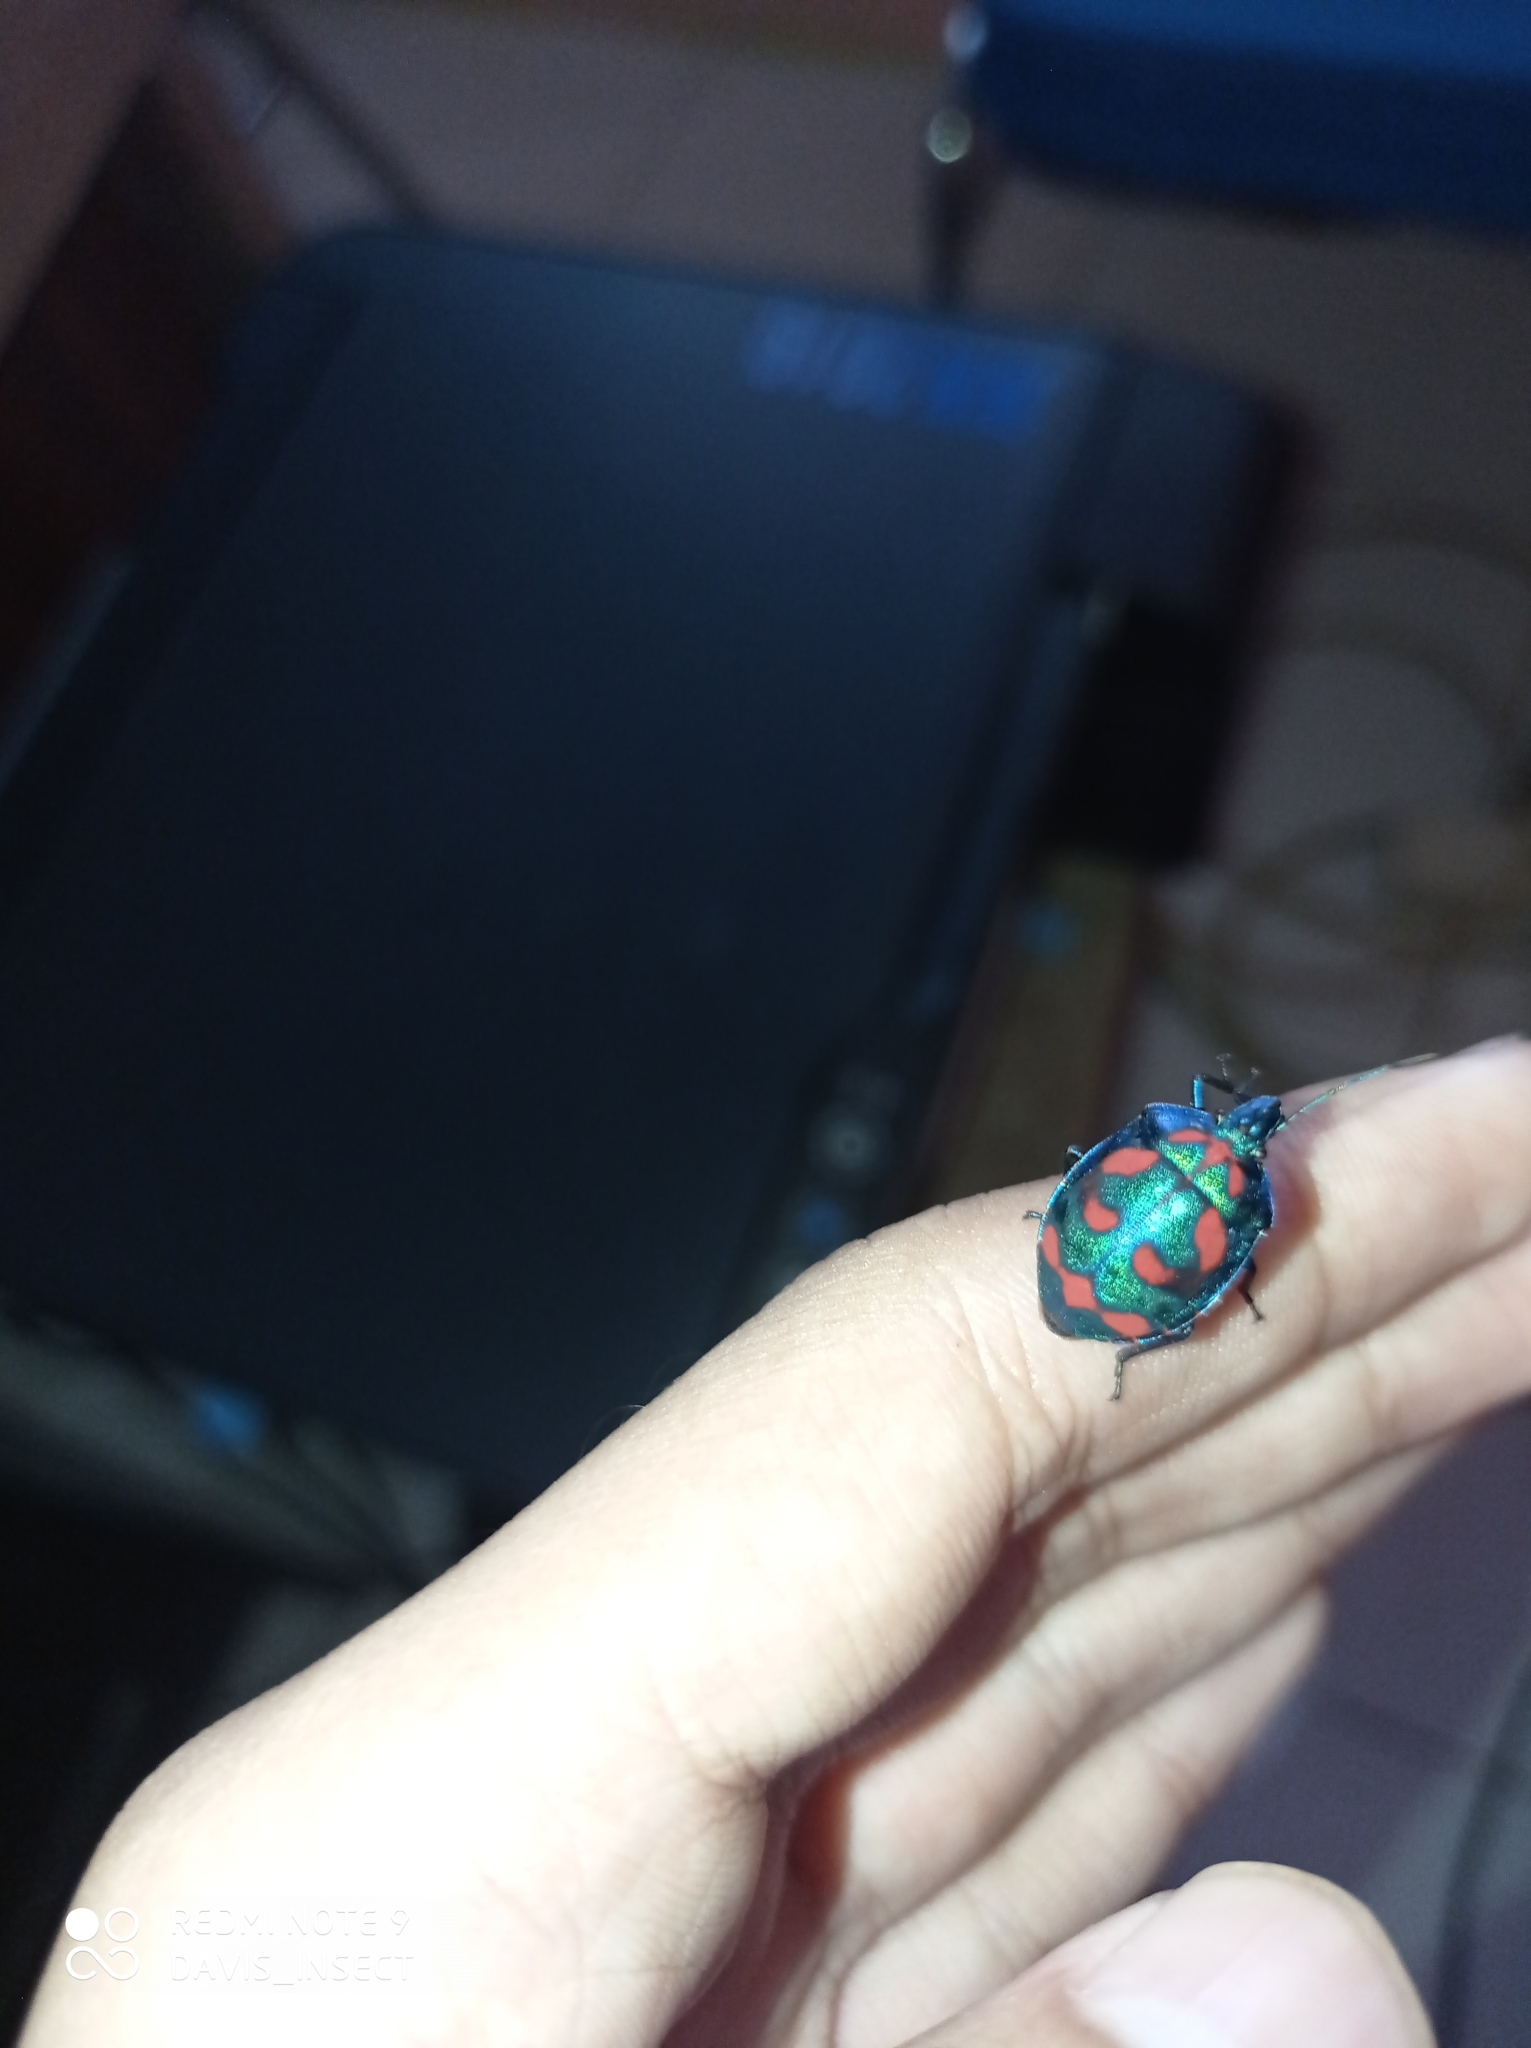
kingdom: Animalia
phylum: Arthropoda
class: Insecta
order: Hemiptera
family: Scutelleridae
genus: Tectocoris
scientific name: Tectocoris diophthalmus
